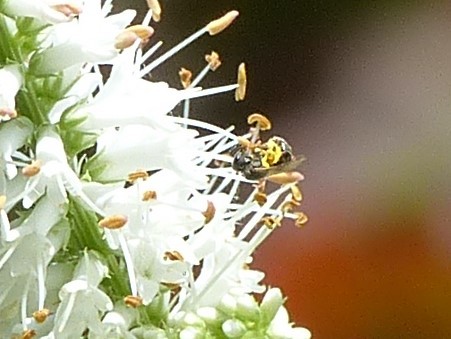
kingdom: Animalia
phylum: Arthropoda
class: Insecta
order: Hymenoptera
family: Halictidae
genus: Dialictus
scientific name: Dialictus
